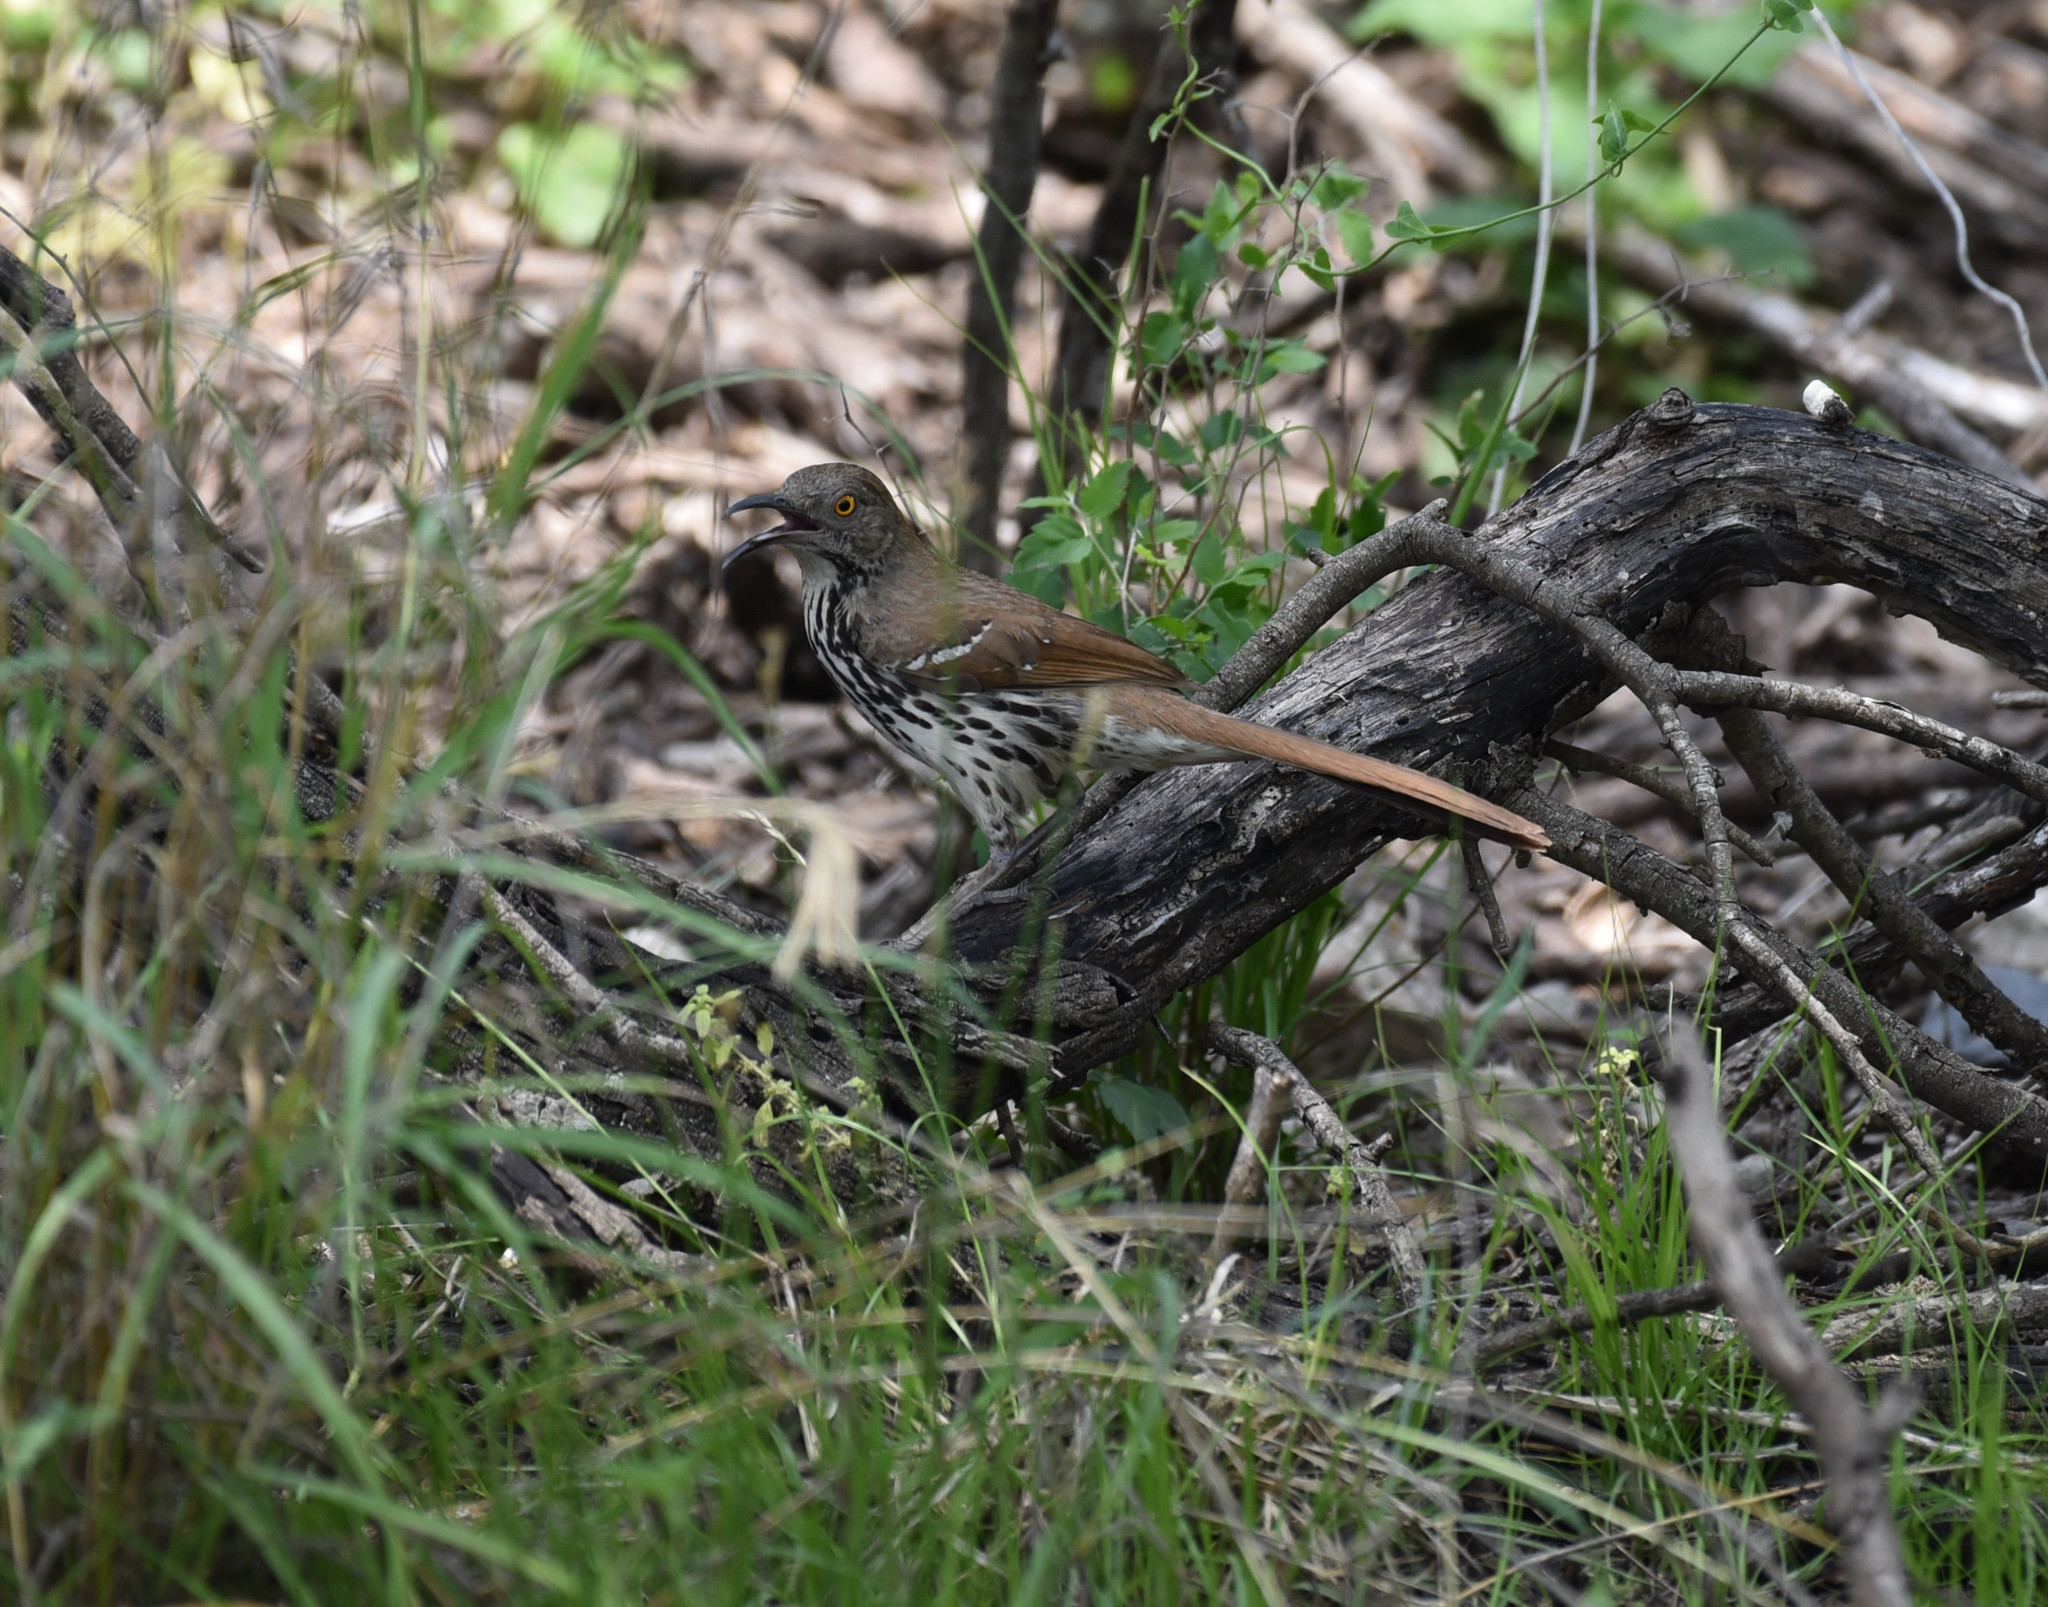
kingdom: Animalia
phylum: Chordata
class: Aves
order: Passeriformes
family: Mimidae
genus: Toxostoma
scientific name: Toxostoma longirostre
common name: Long-billed thrasher
